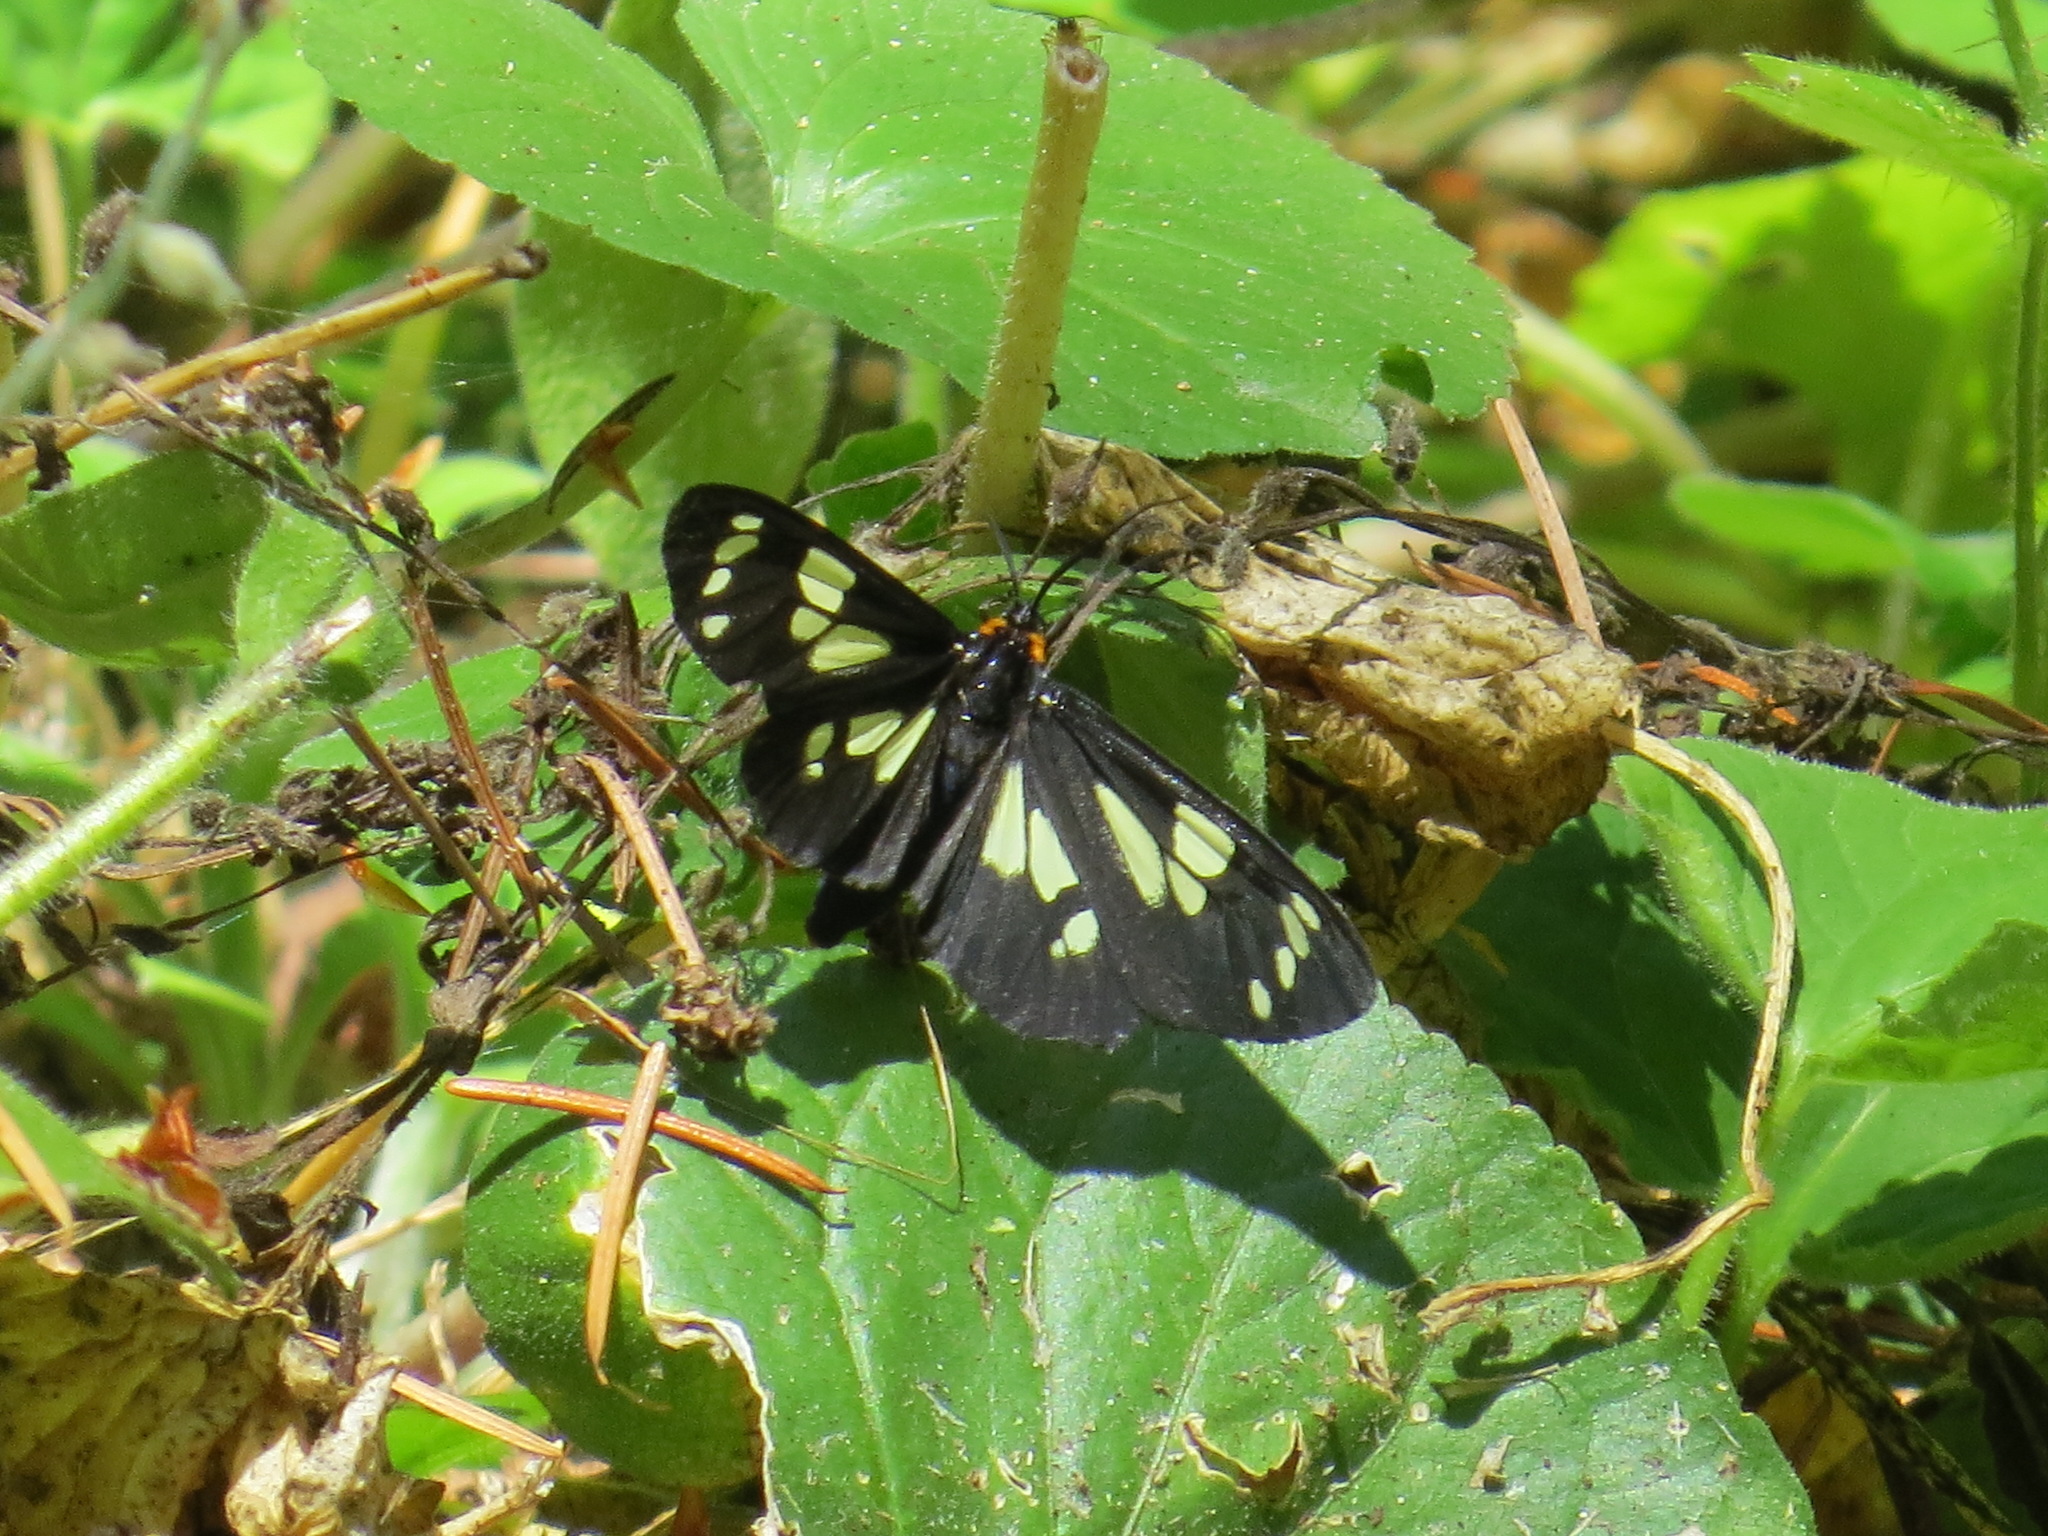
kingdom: Animalia
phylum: Arthropoda
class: Insecta
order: Lepidoptera
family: Erebidae
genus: Gnophaela
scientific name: Gnophaela latipennis
